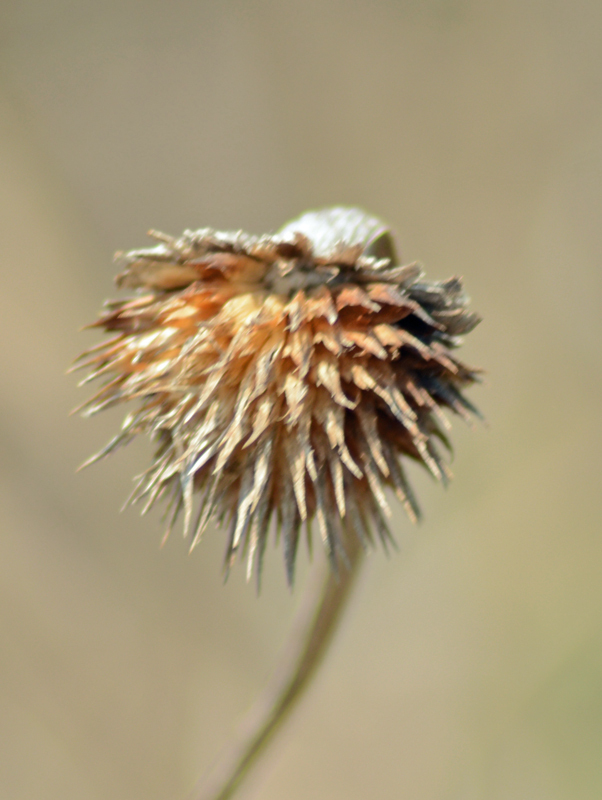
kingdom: Plantae
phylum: Tracheophyta
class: Magnoliopsida
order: Lamiales
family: Lamiaceae
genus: Leonotis
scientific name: Leonotis nepetifolia
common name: Christmas candlestick
